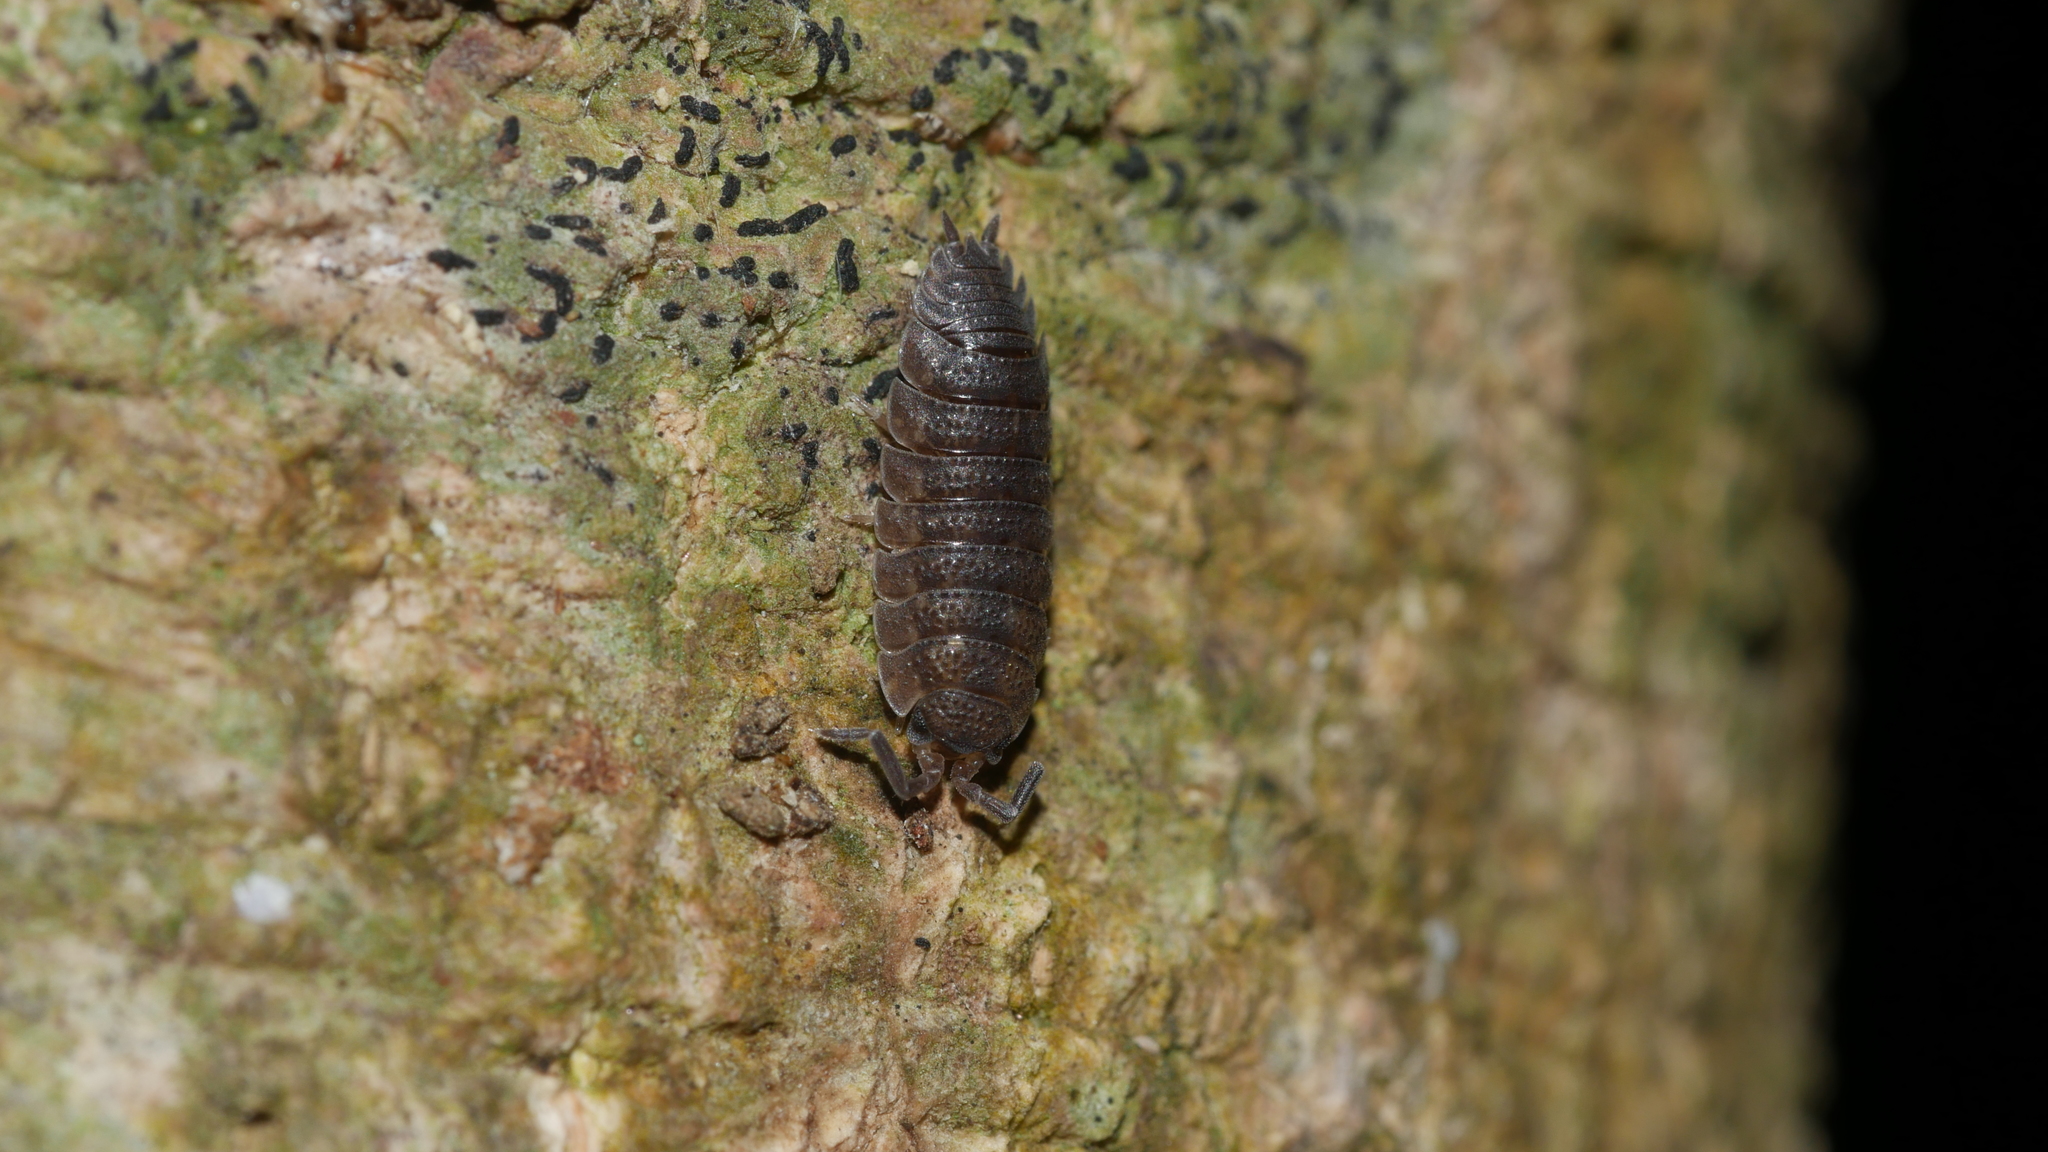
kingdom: Animalia
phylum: Arthropoda
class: Malacostraca
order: Isopoda
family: Porcellionidae
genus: Porcellio
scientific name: Porcellio scaber
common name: Common rough woodlouse
